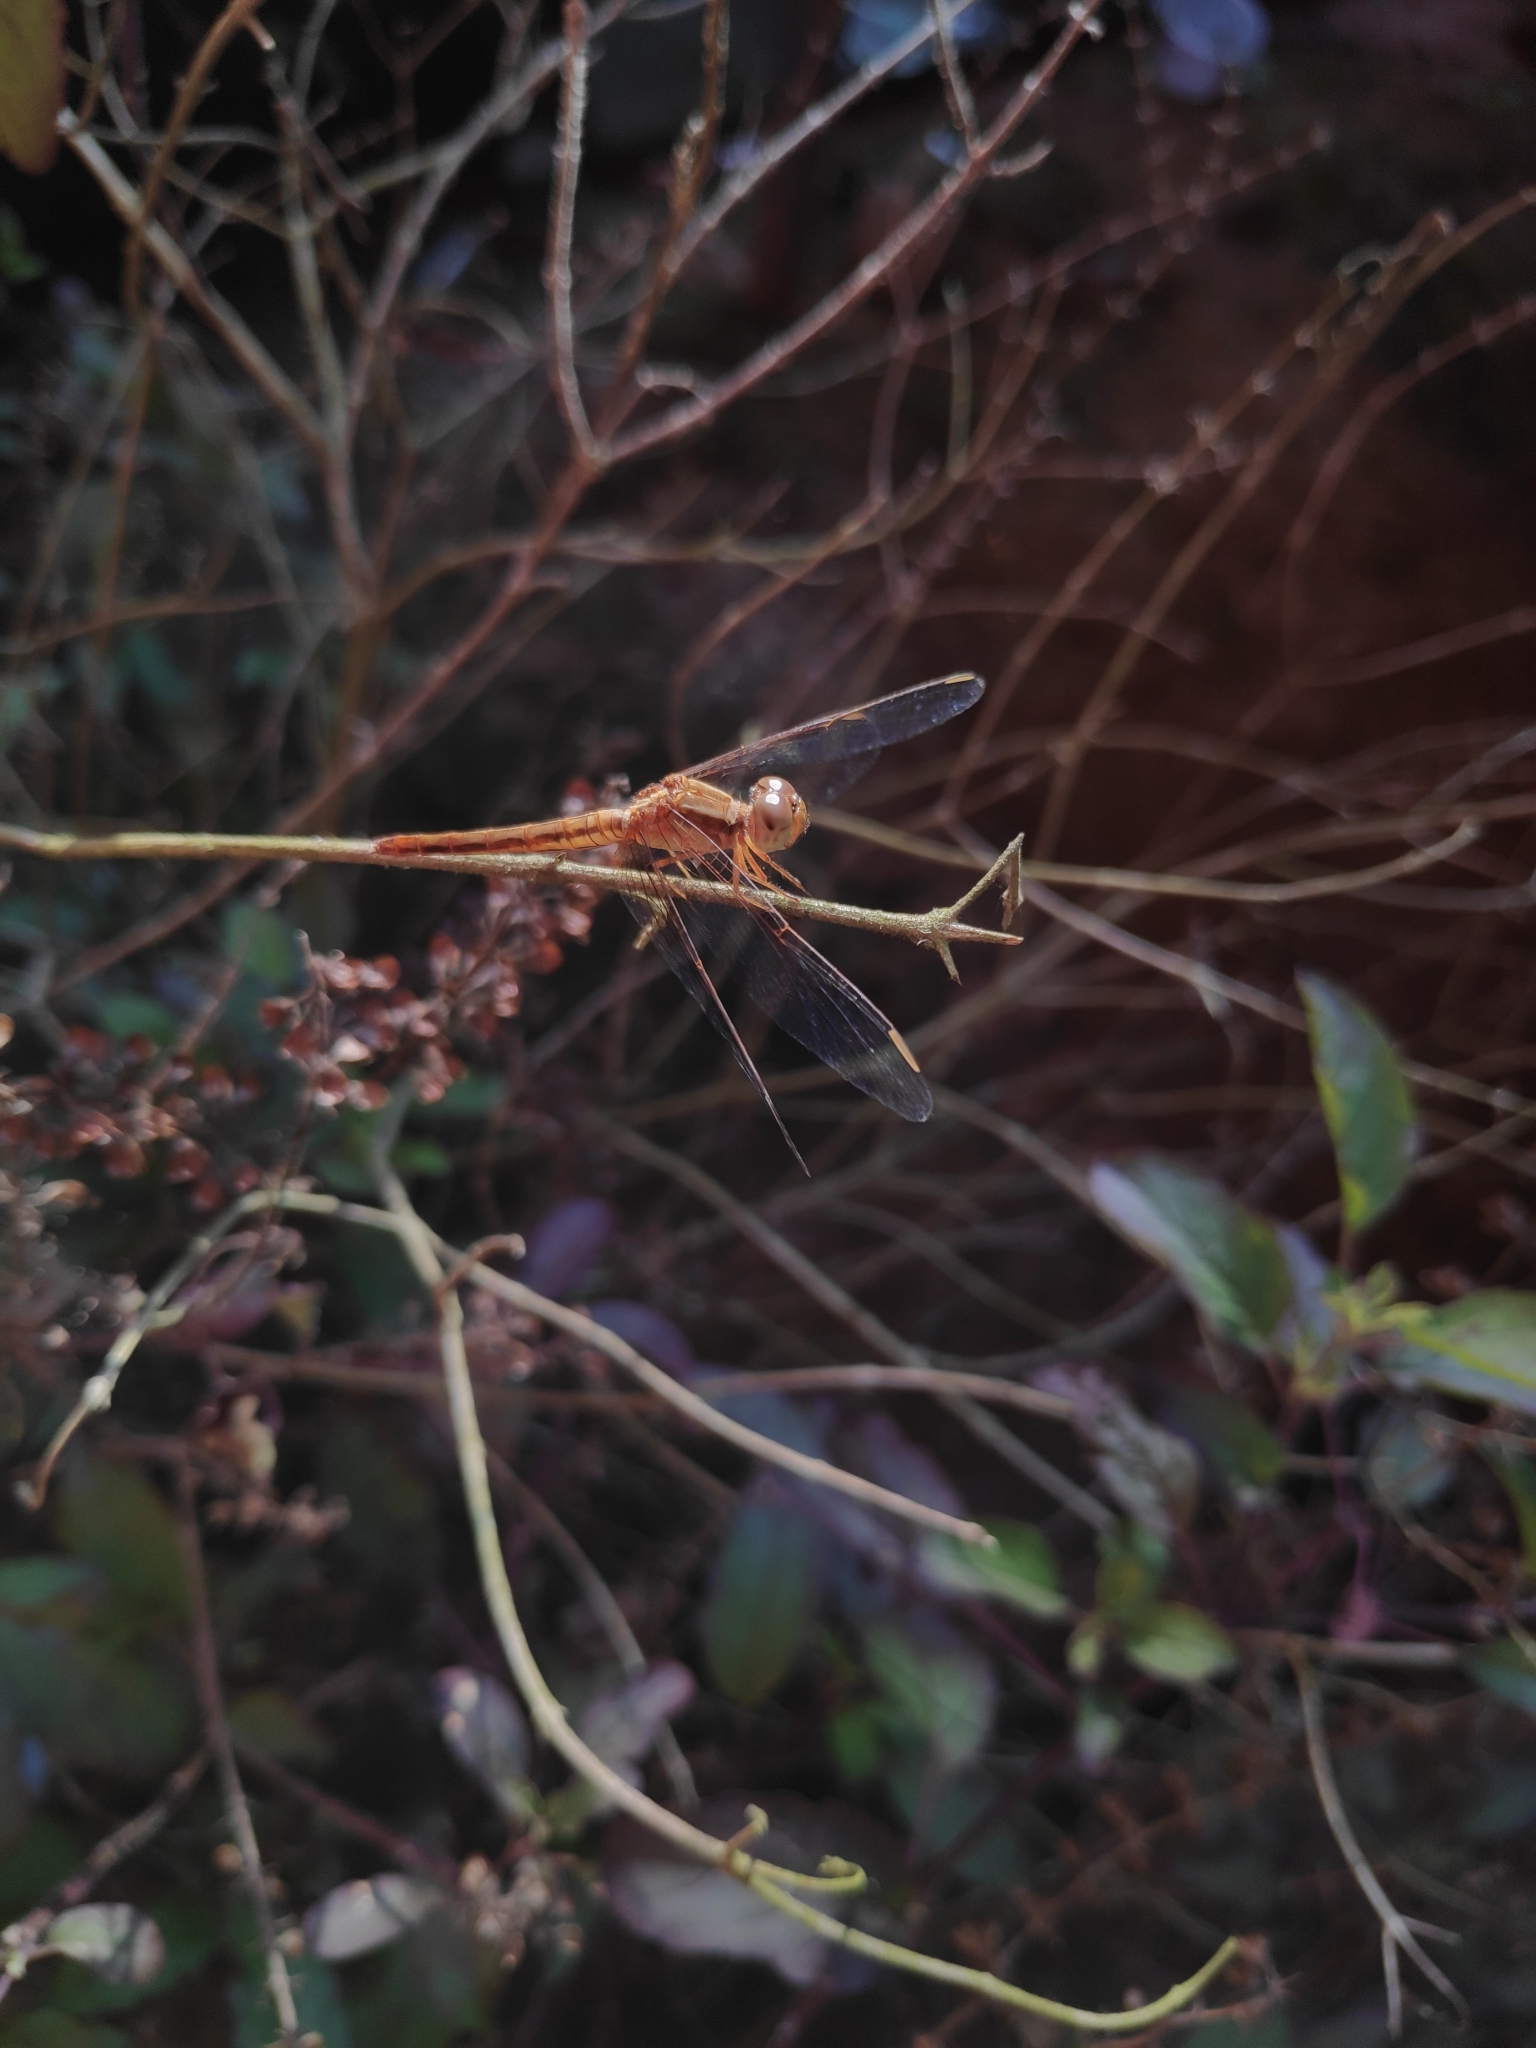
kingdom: Animalia
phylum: Arthropoda
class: Insecta
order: Odonata
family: Libellulidae
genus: Neurothemis
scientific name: Neurothemis intermedia
